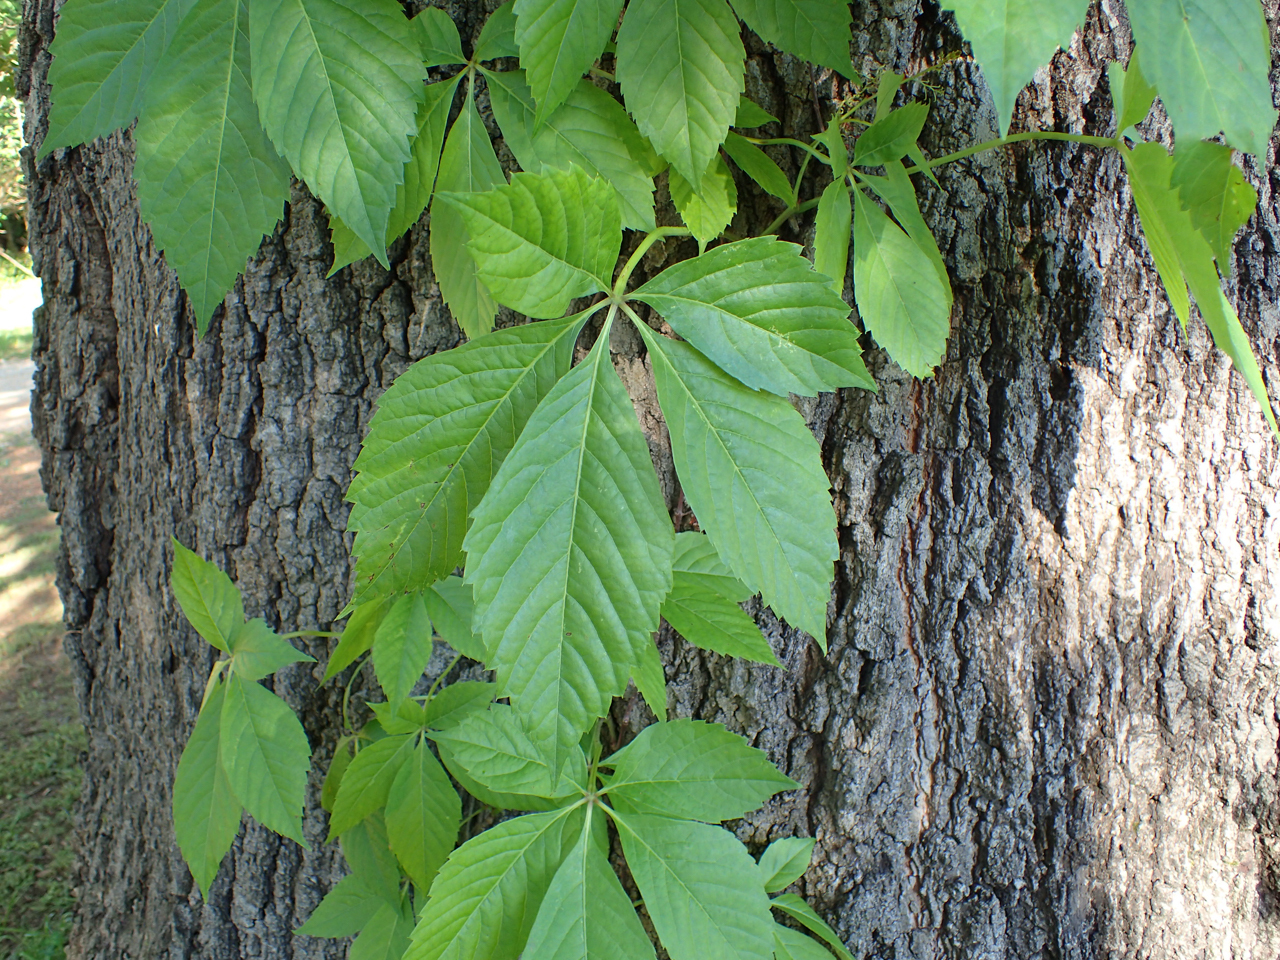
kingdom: Plantae
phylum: Tracheophyta
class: Magnoliopsida
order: Vitales
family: Vitaceae
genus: Parthenocissus
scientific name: Parthenocissus quinquefolia
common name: Virginia-creeper
